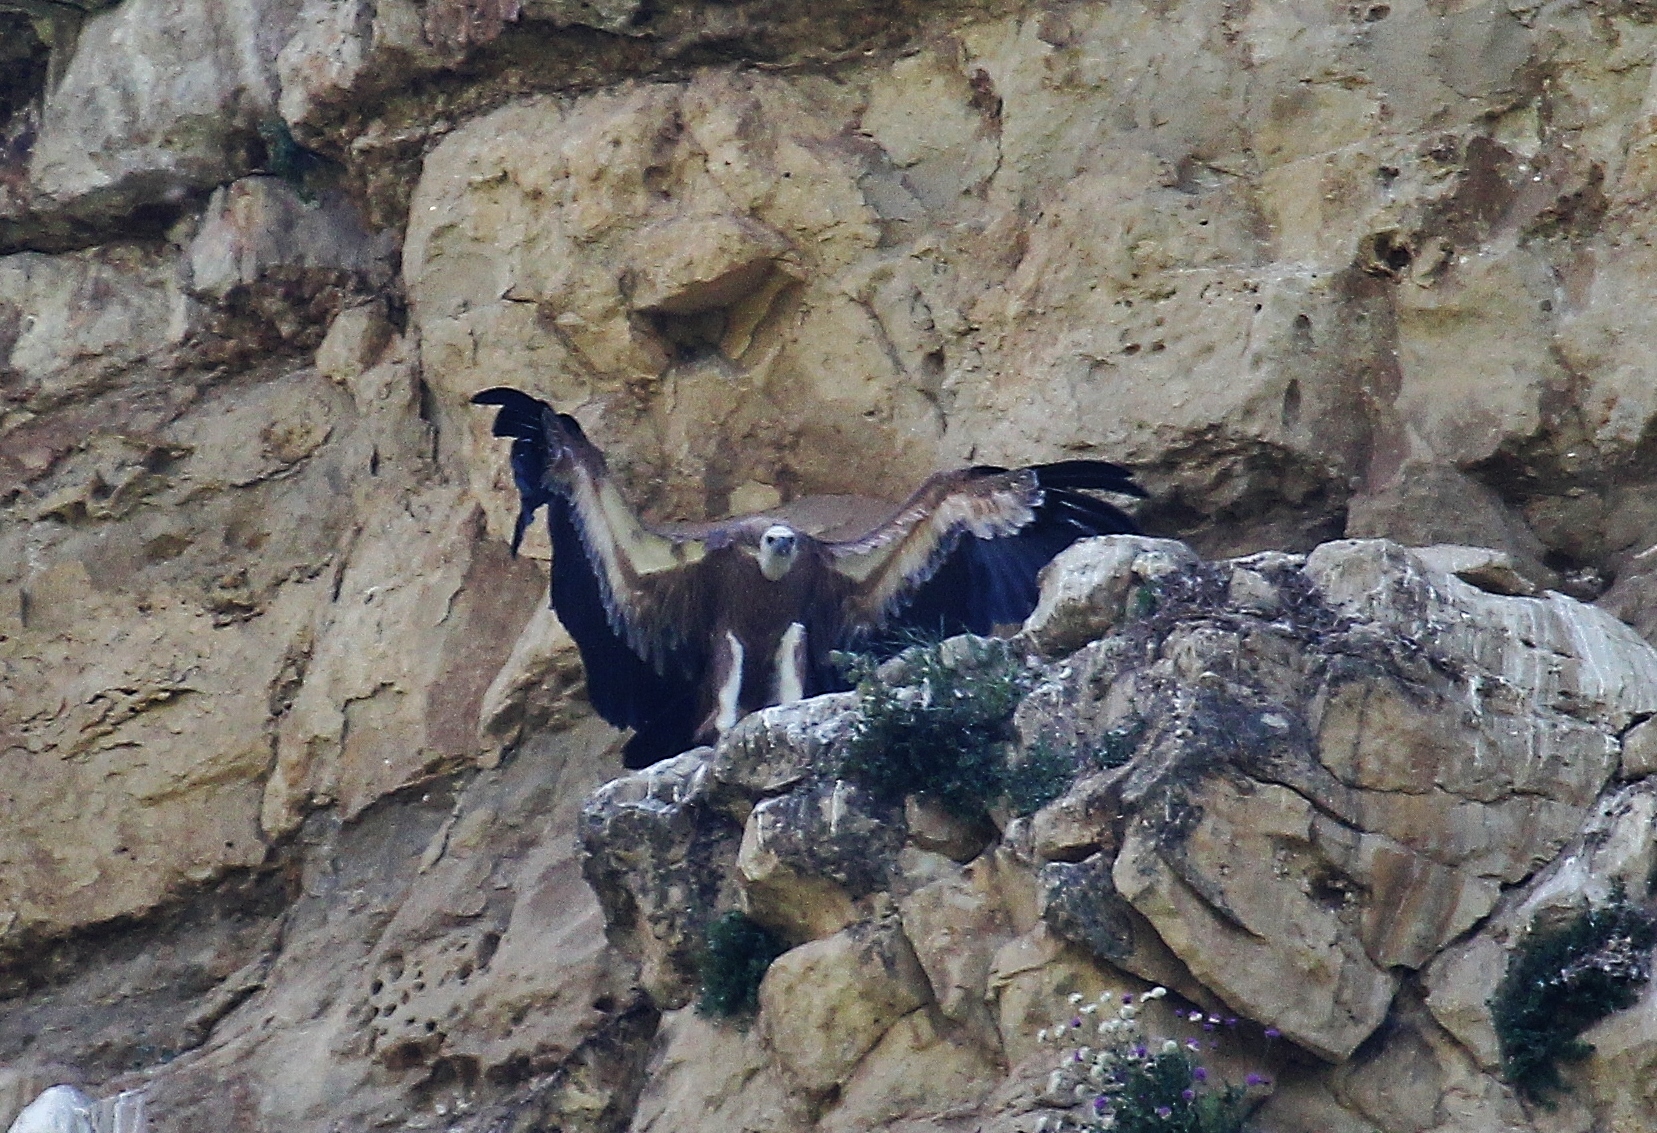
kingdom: Animalia
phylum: Chordata
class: Aves
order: Accipitriformes
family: Accipitridae
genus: Gyps
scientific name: Gyps fulvus
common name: Griffon vulture
